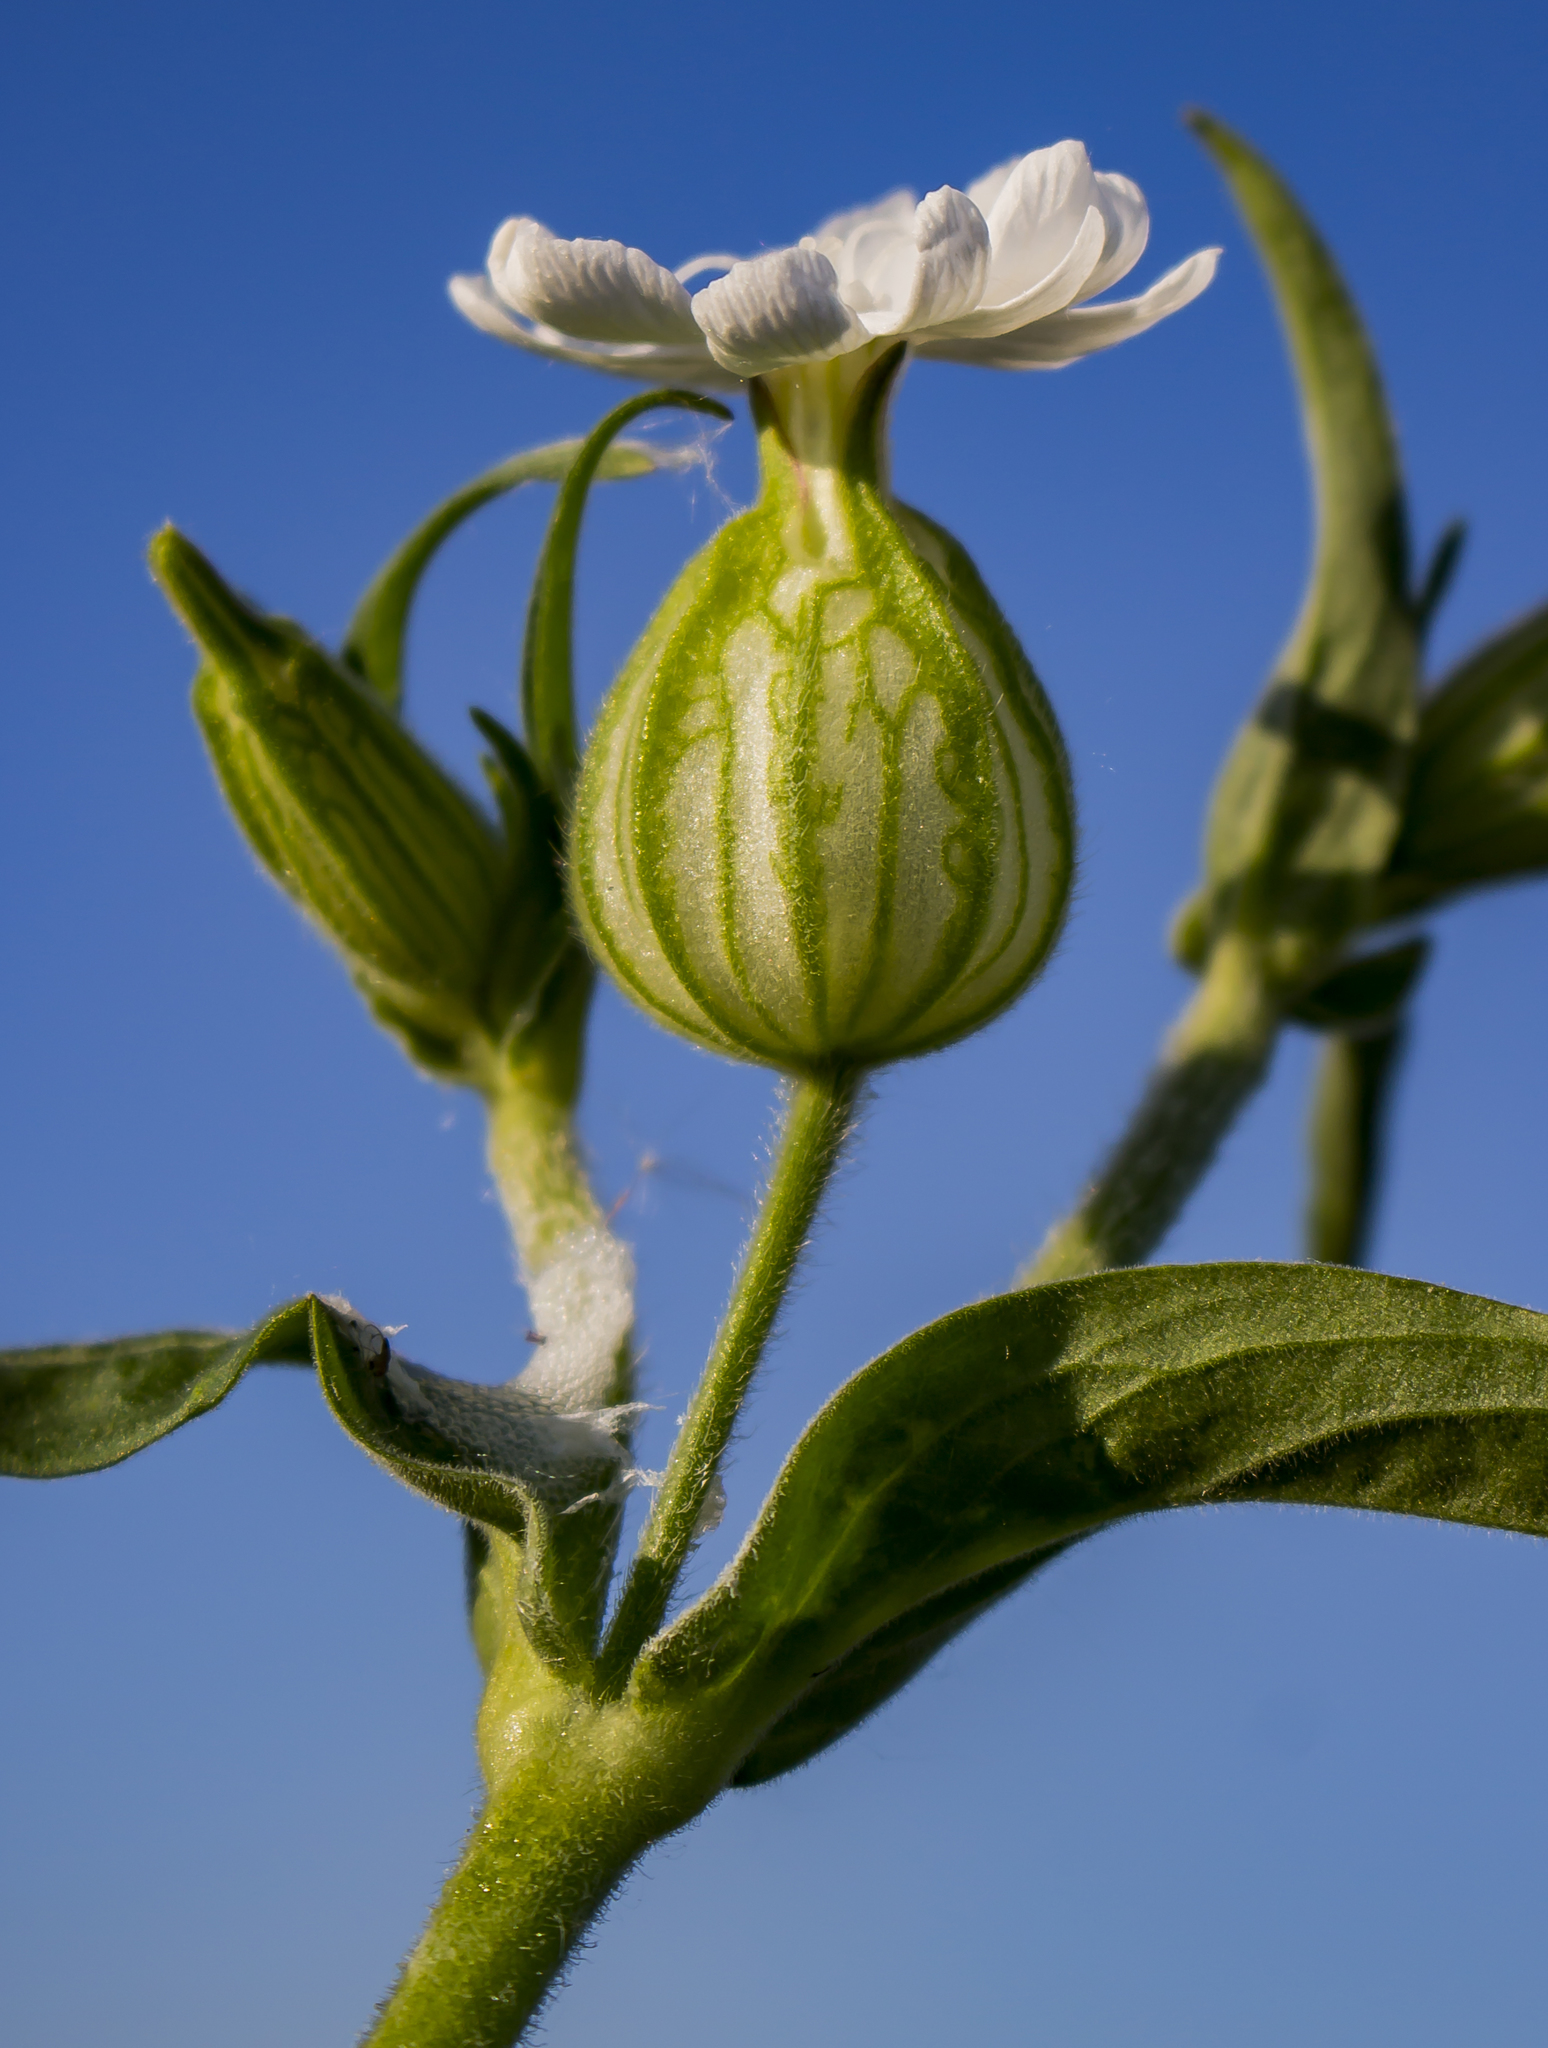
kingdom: Plantae
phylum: Tracheophyta
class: Magnoliopsida
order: Caryophyllales
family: Caryophyllaceae
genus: Silene
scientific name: Silene latifolia
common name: White campion
